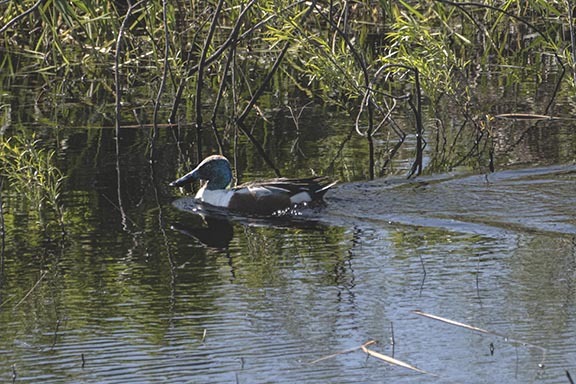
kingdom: Animalia
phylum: Chordata
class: Aves
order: Anseriformes
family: Anatidae
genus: Spatula
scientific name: Spatula clypeata
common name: Northern shoveler
